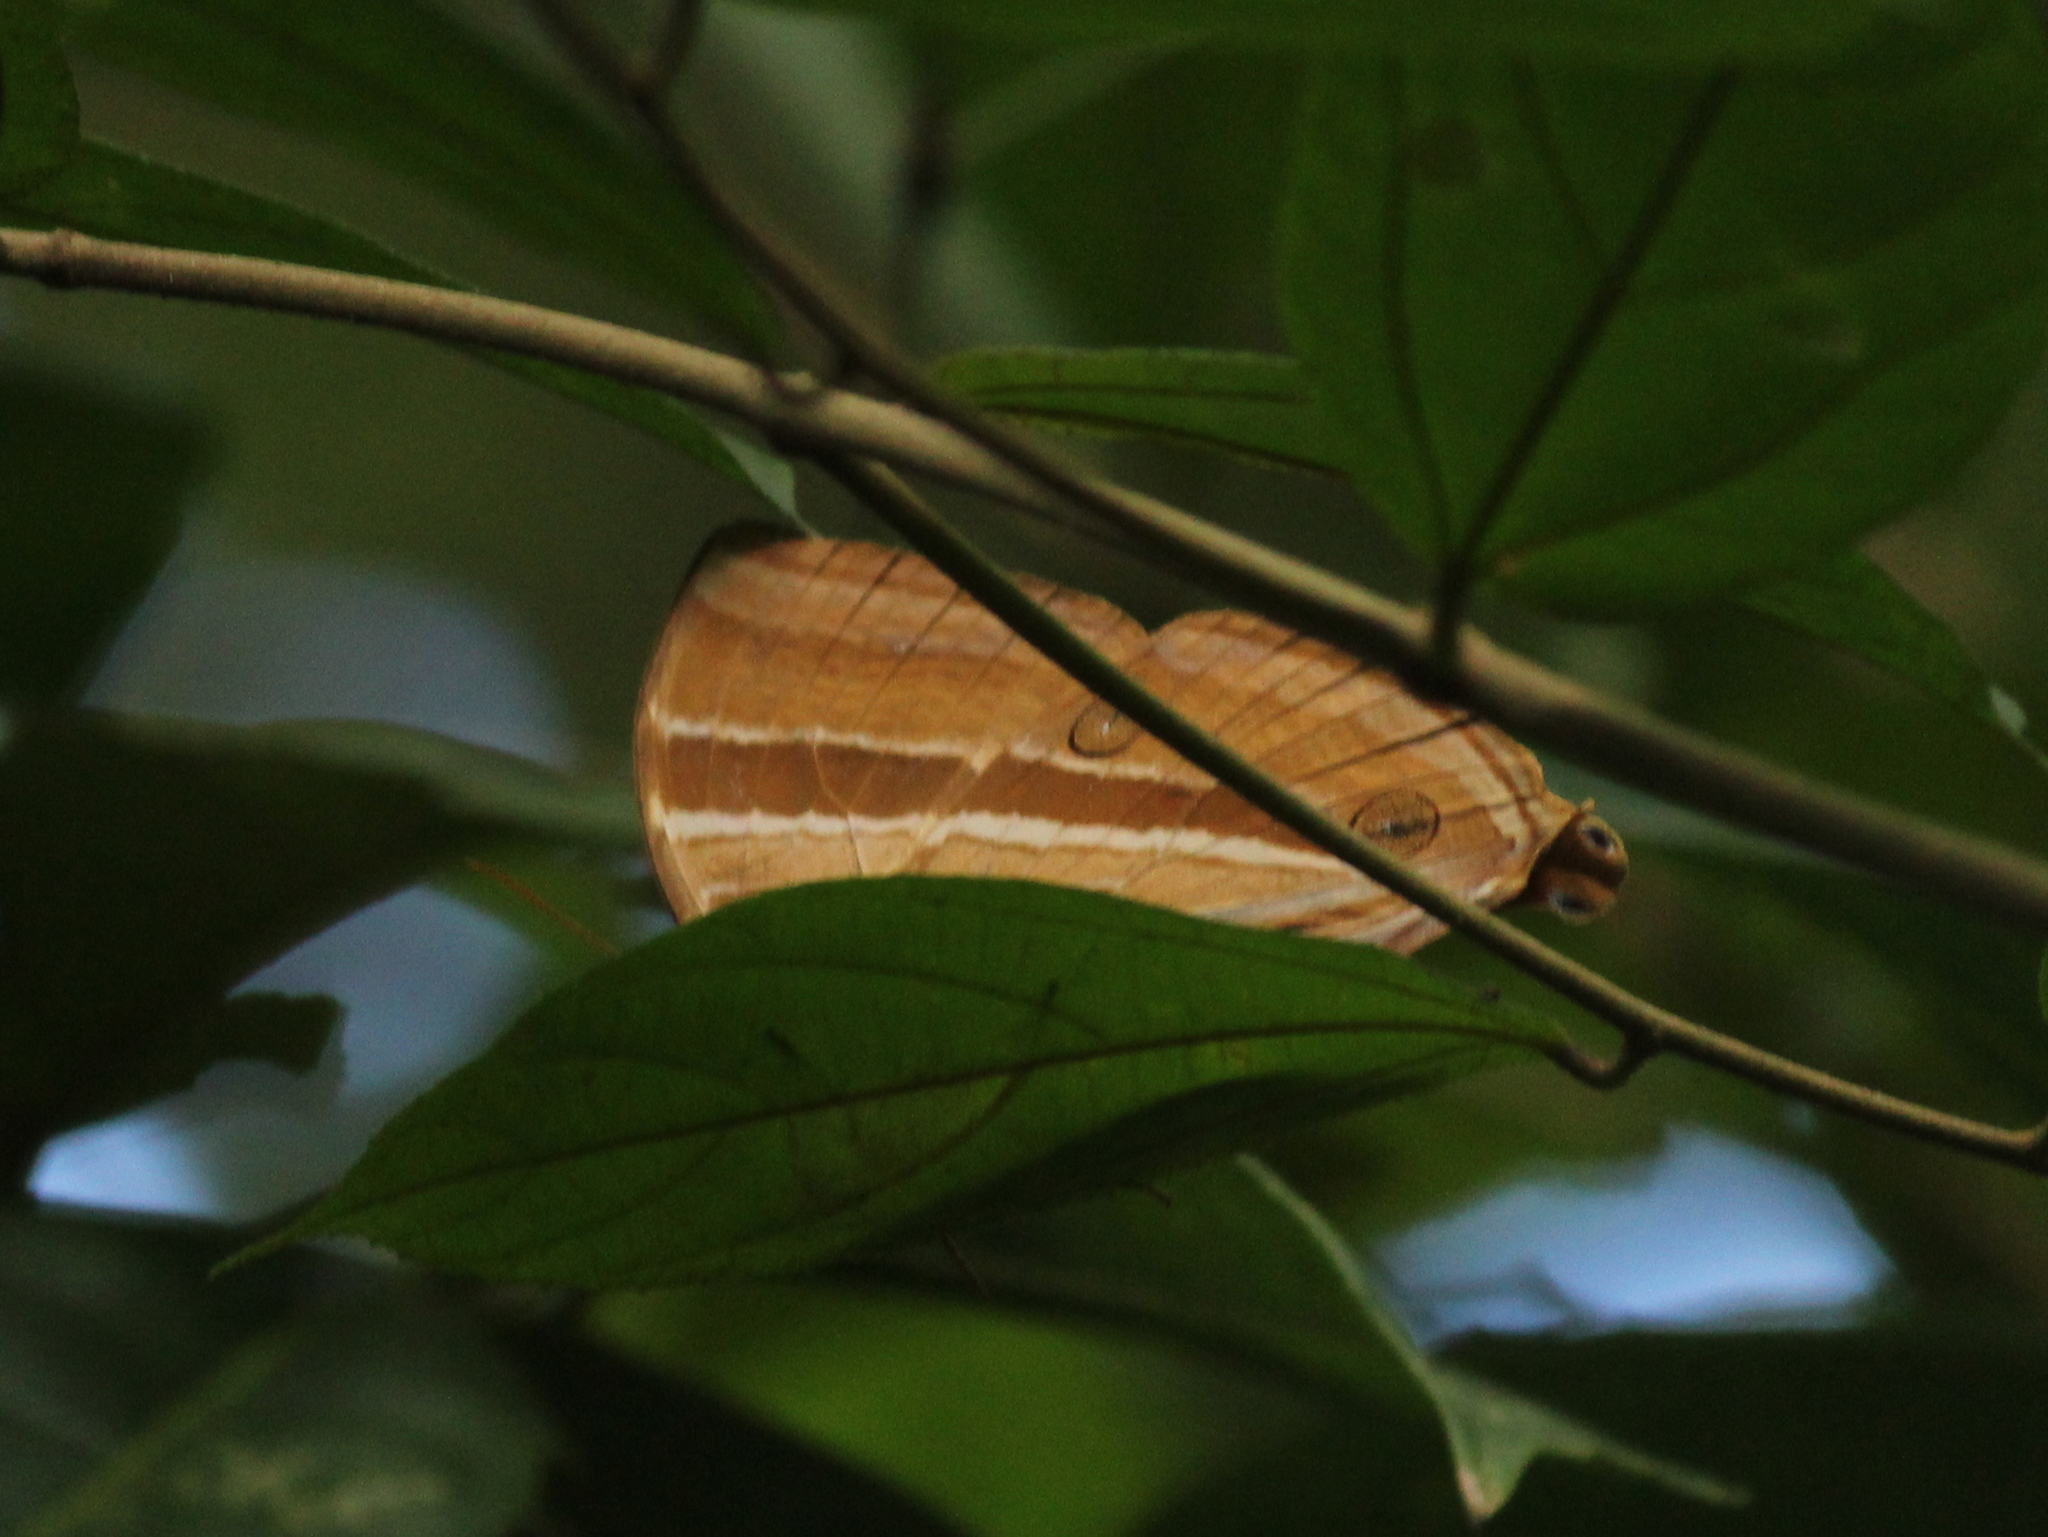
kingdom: Animalia
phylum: Arthropoda
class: Insecta
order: Lepidoptera
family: Nymphalidae
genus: Amathusia
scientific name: Amathusia phidippus
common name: Palm king
